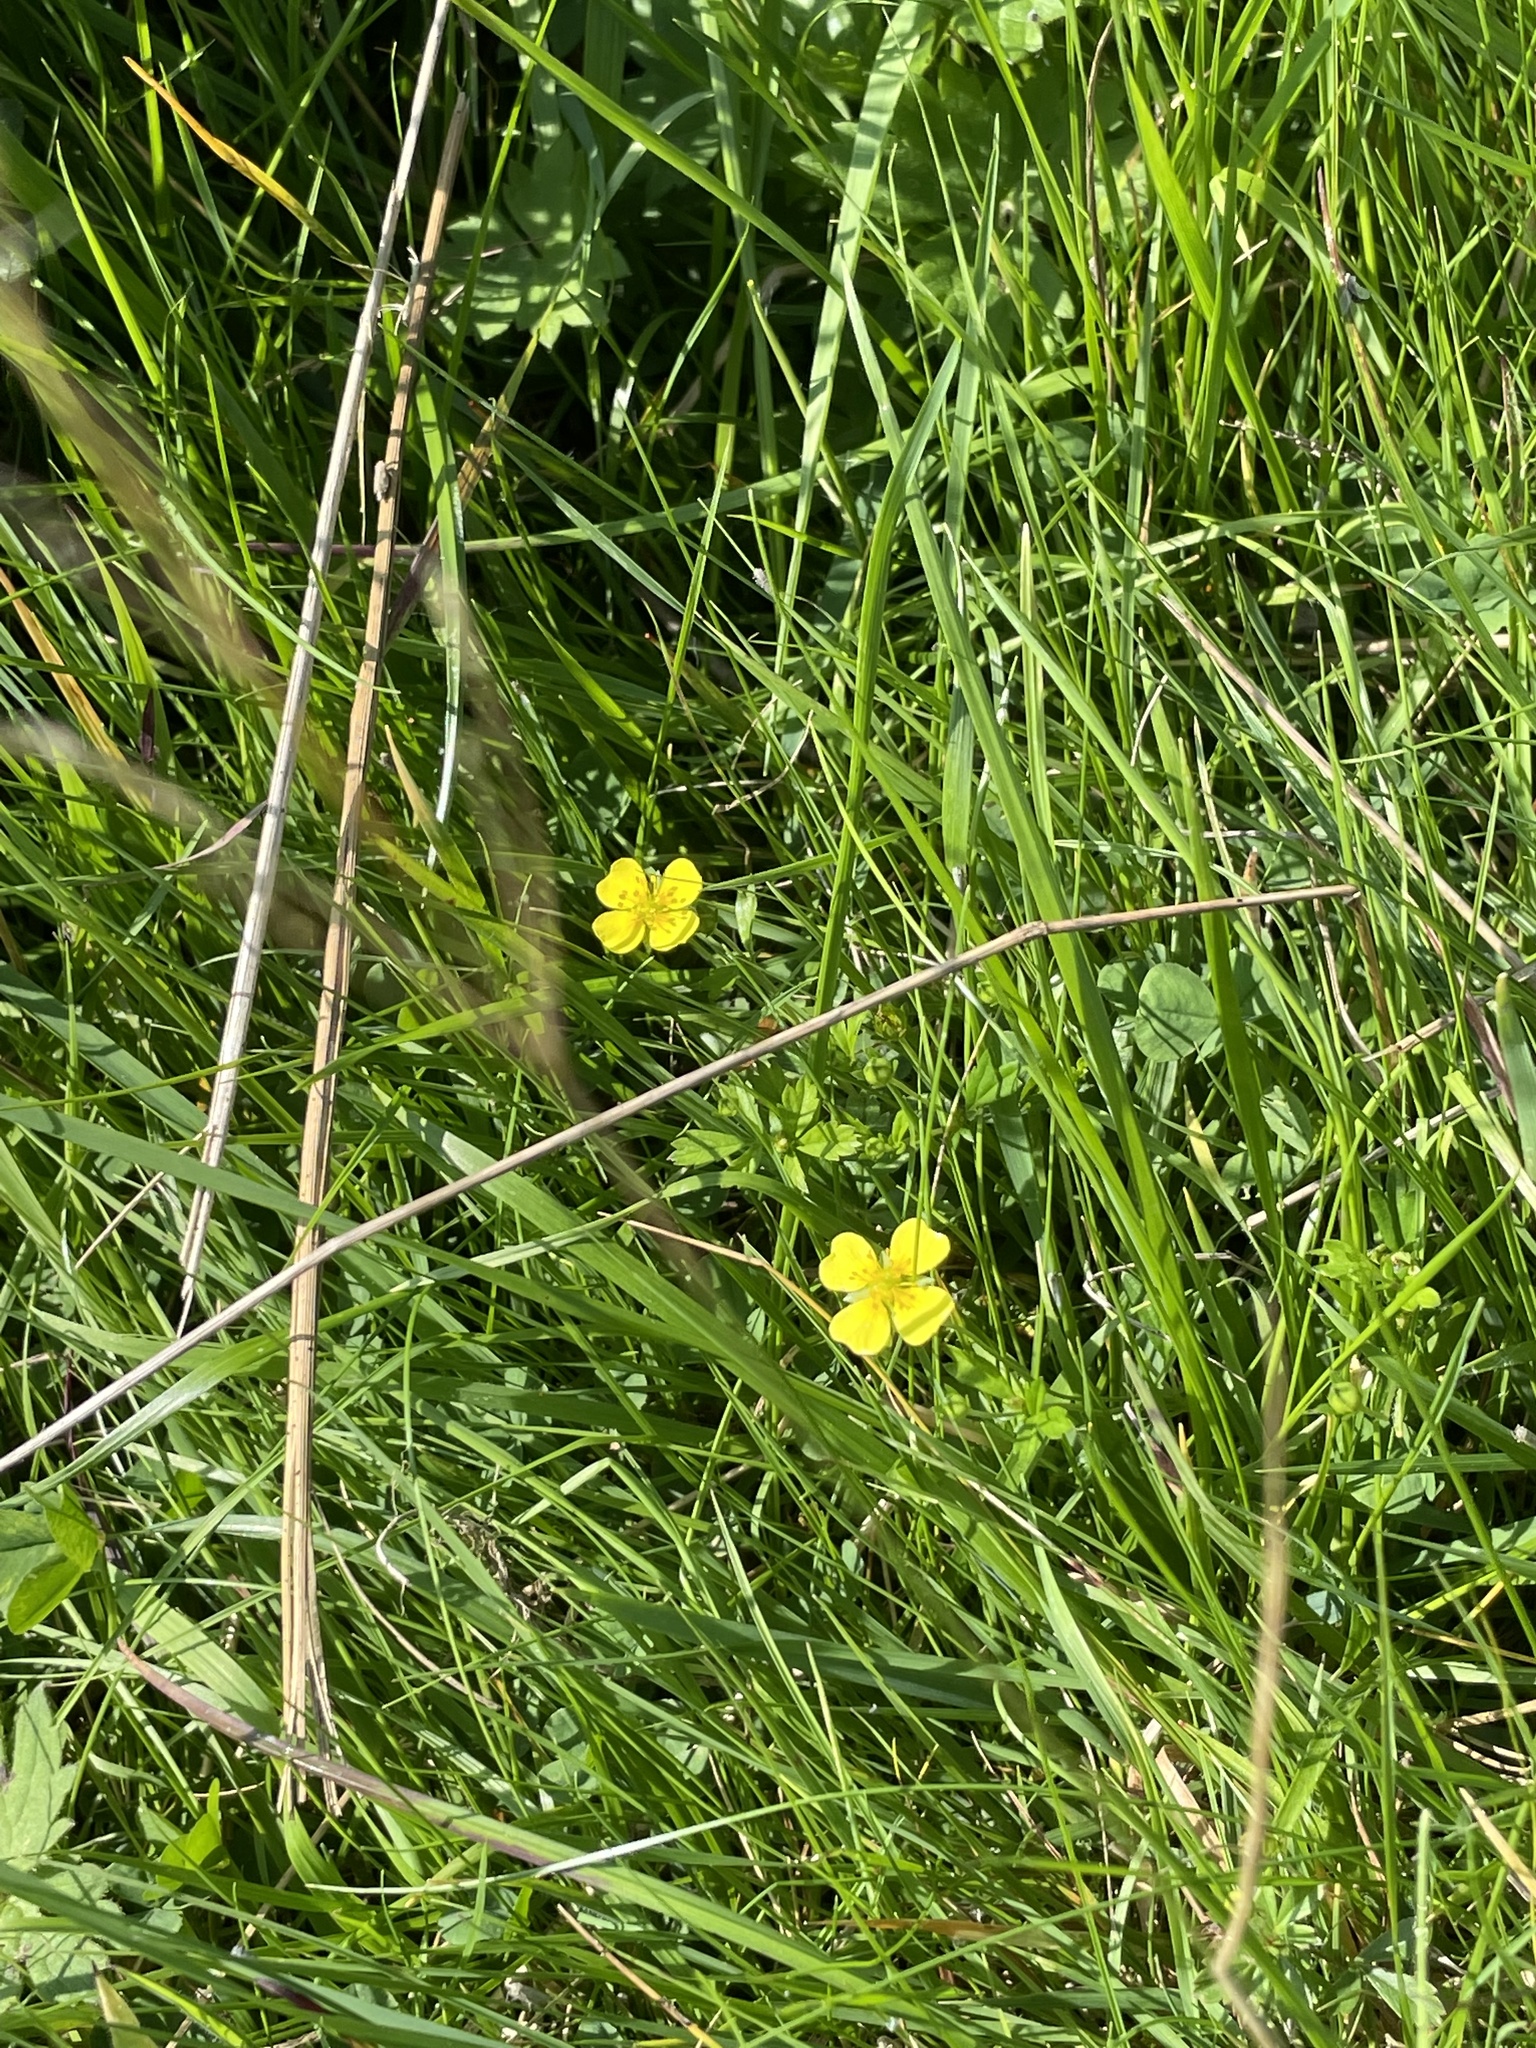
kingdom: Plantae
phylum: Tracheophyta
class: Magnoliopsida
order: Rosales
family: Rosaceae
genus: Potentilla
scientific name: Potentilla erecta
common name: Tormentil
